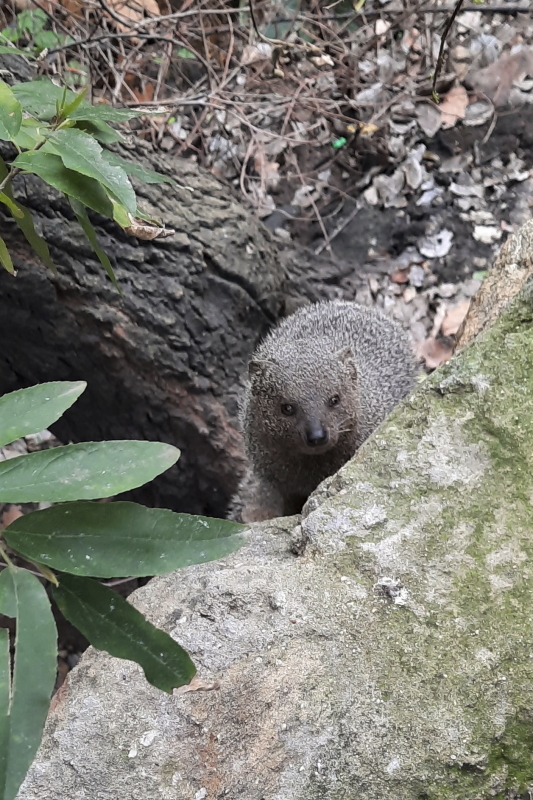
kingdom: Animalia
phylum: Chordata
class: Mammalia
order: Carnivora
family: Herpestidae
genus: Galerella
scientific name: Galerella pulverulenta
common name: Cape gray mongoose
